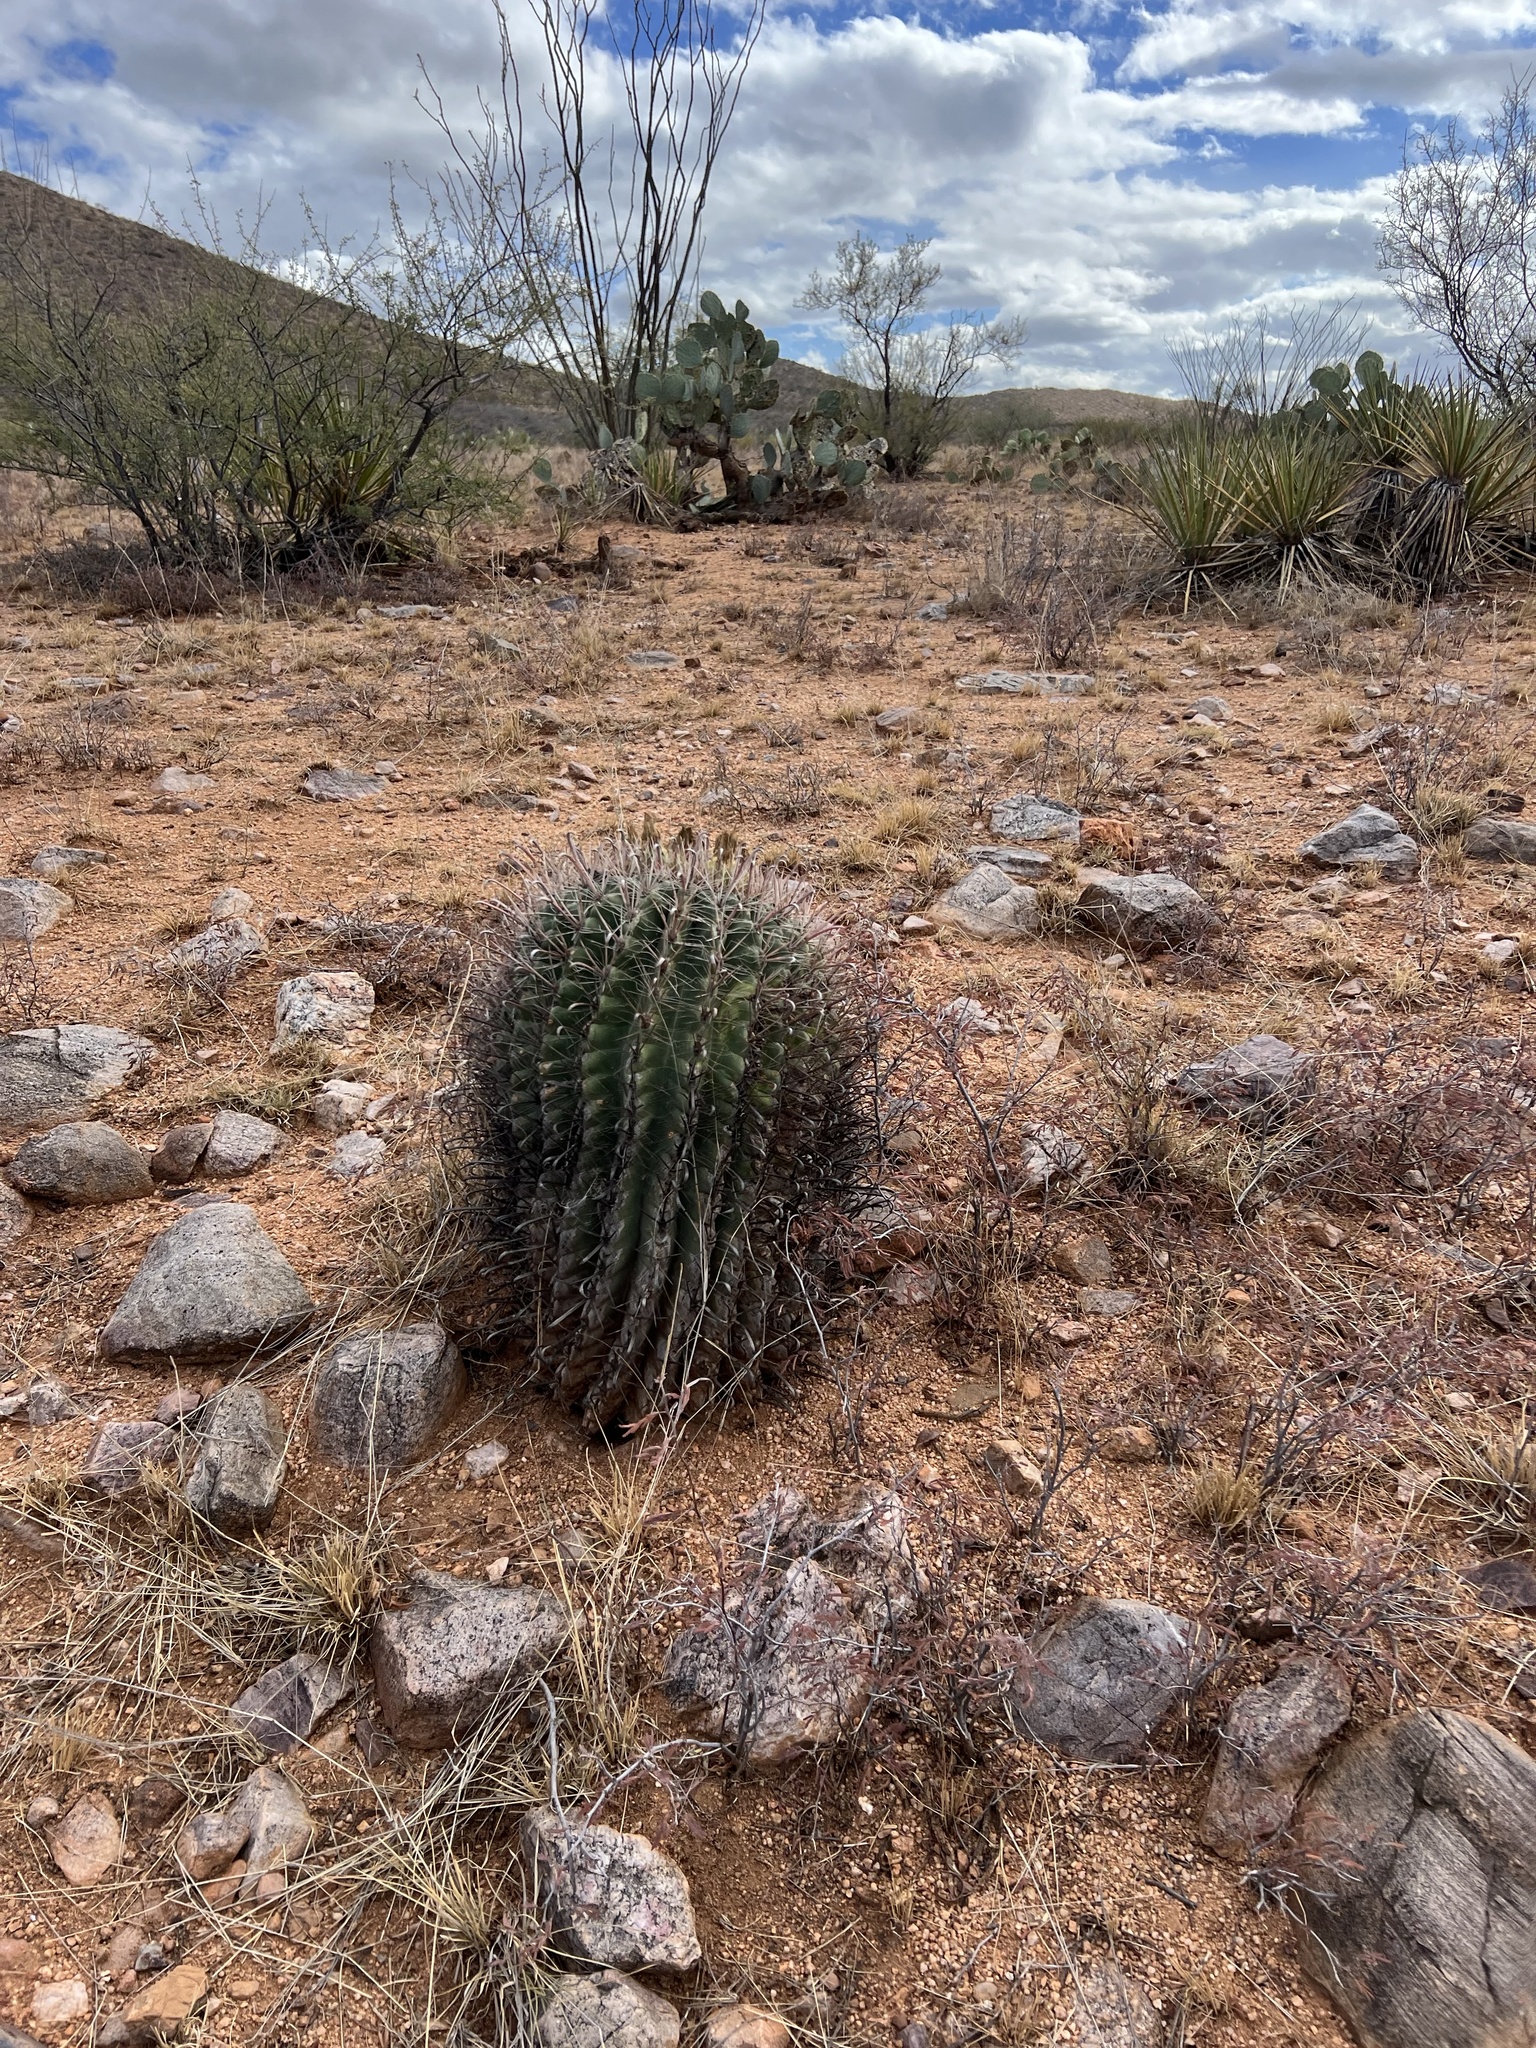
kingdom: Plantae
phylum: Tracheophyta
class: Magnoliopsida
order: Caryophyllales
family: Cactaceae
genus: Ferocactus
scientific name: Ferocactus wislizeni
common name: Candy barrel cactus
